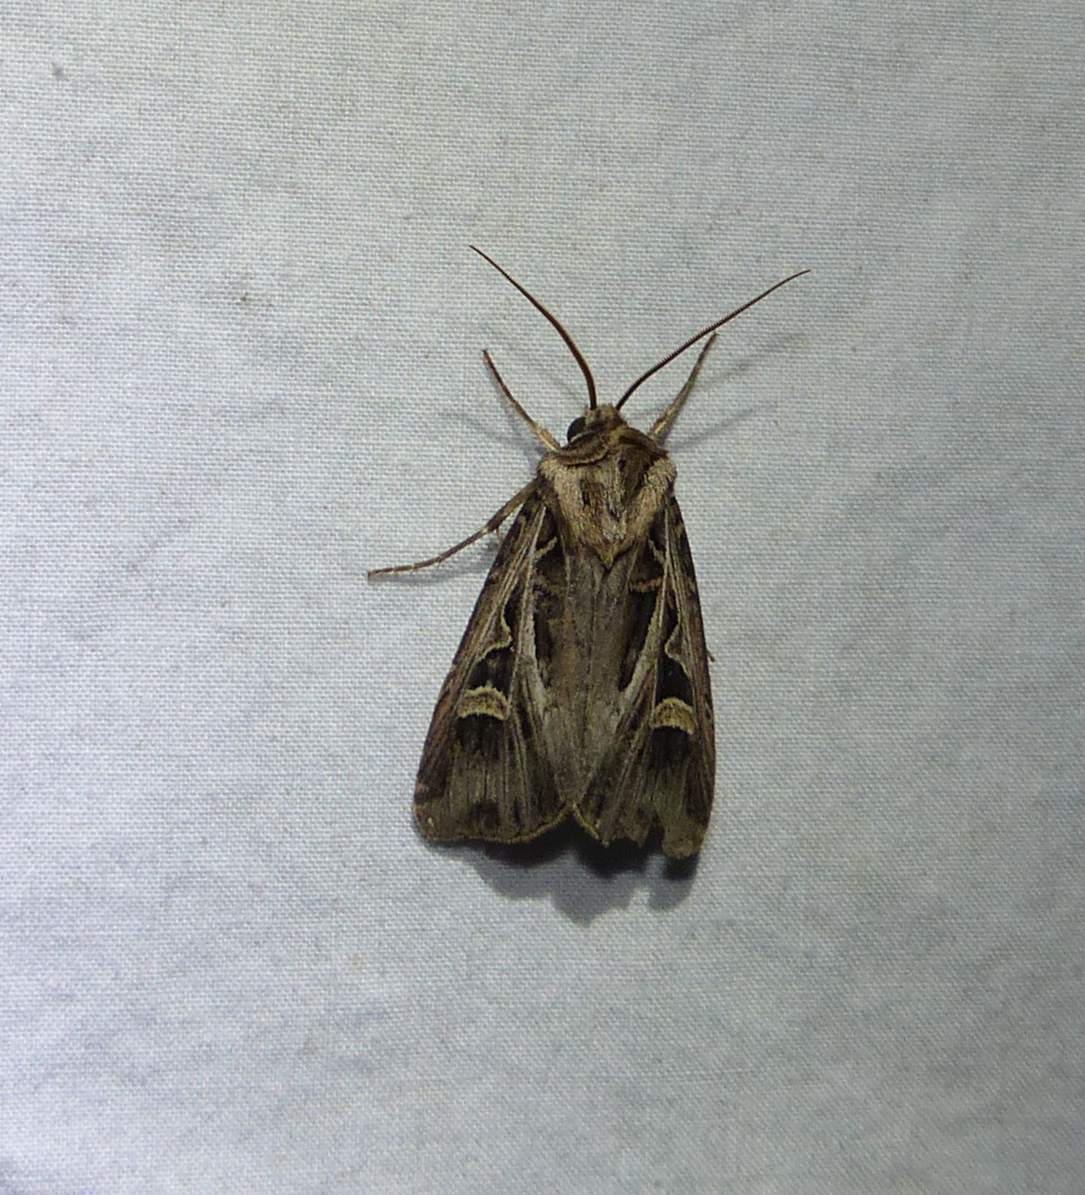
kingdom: Animalia
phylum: Arthropoda
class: Insecta
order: Lepidoptera
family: Noctuidae
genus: Feltia
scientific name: Feltia jaculifera
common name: Dingy cutworm moth
